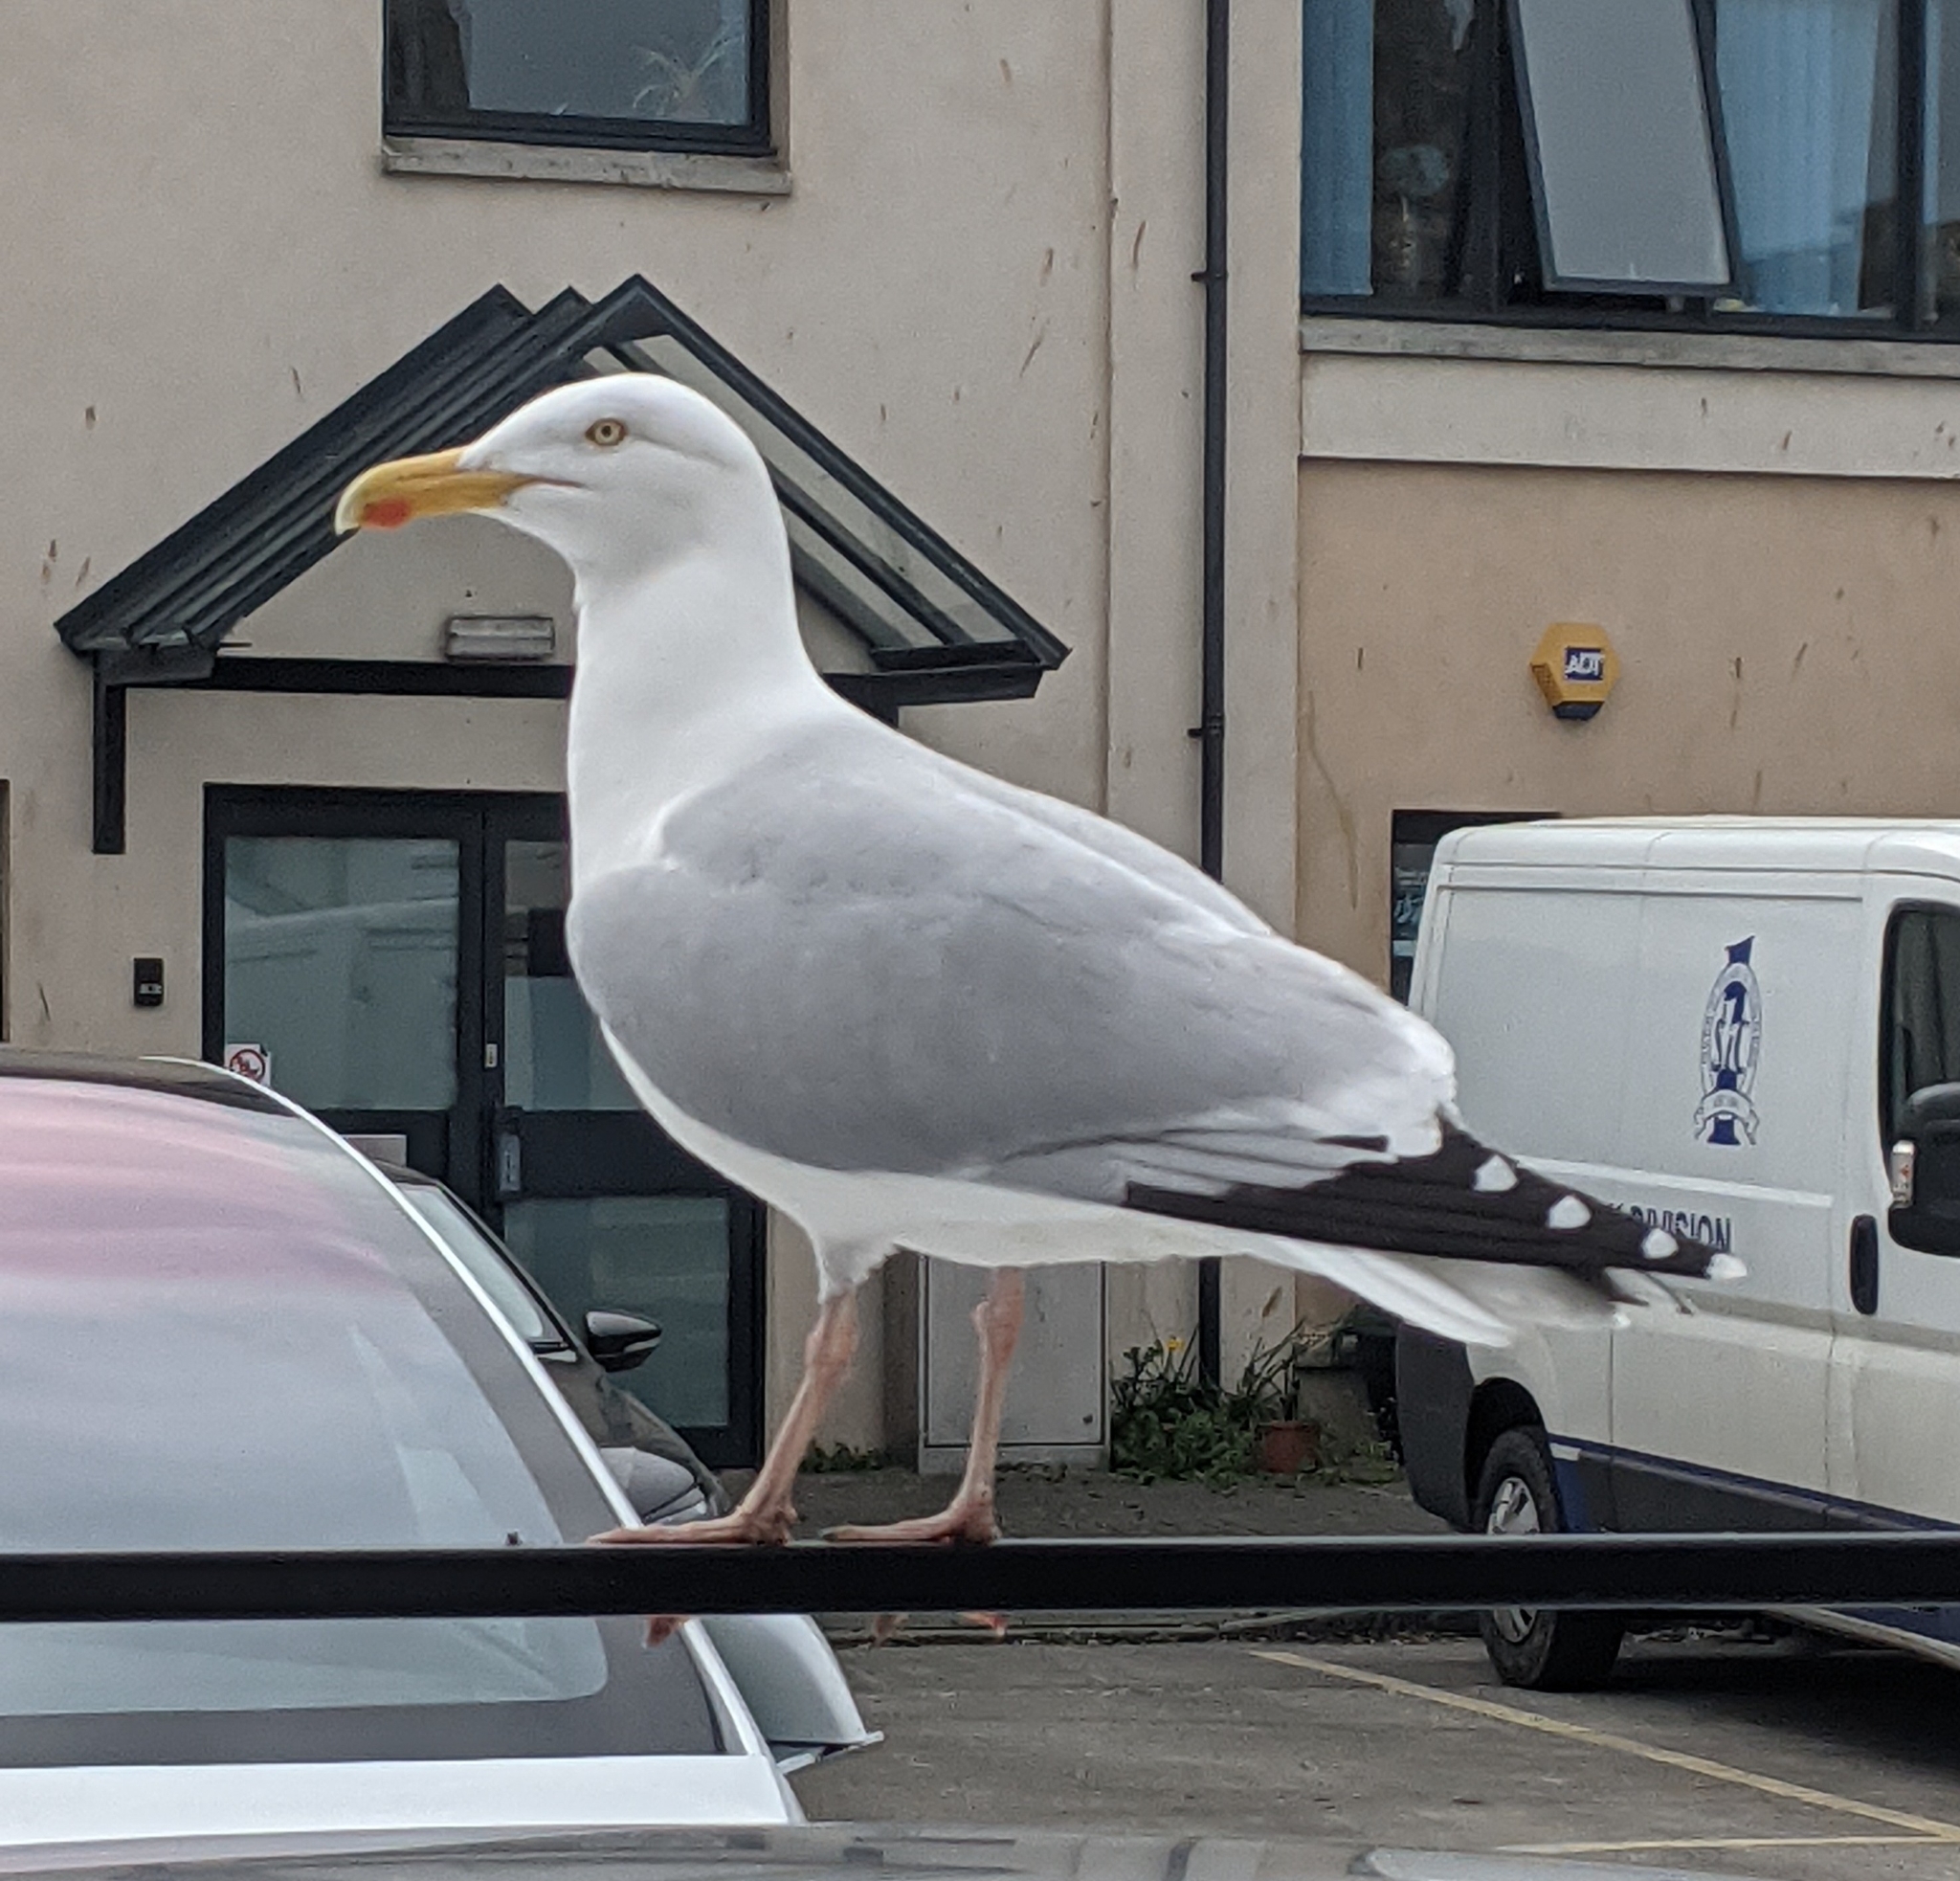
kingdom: Animalia
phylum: Chordata
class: Aves
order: Charadriiformes
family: Laridae
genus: Larus
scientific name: Larus argentatus
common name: Herring gull
